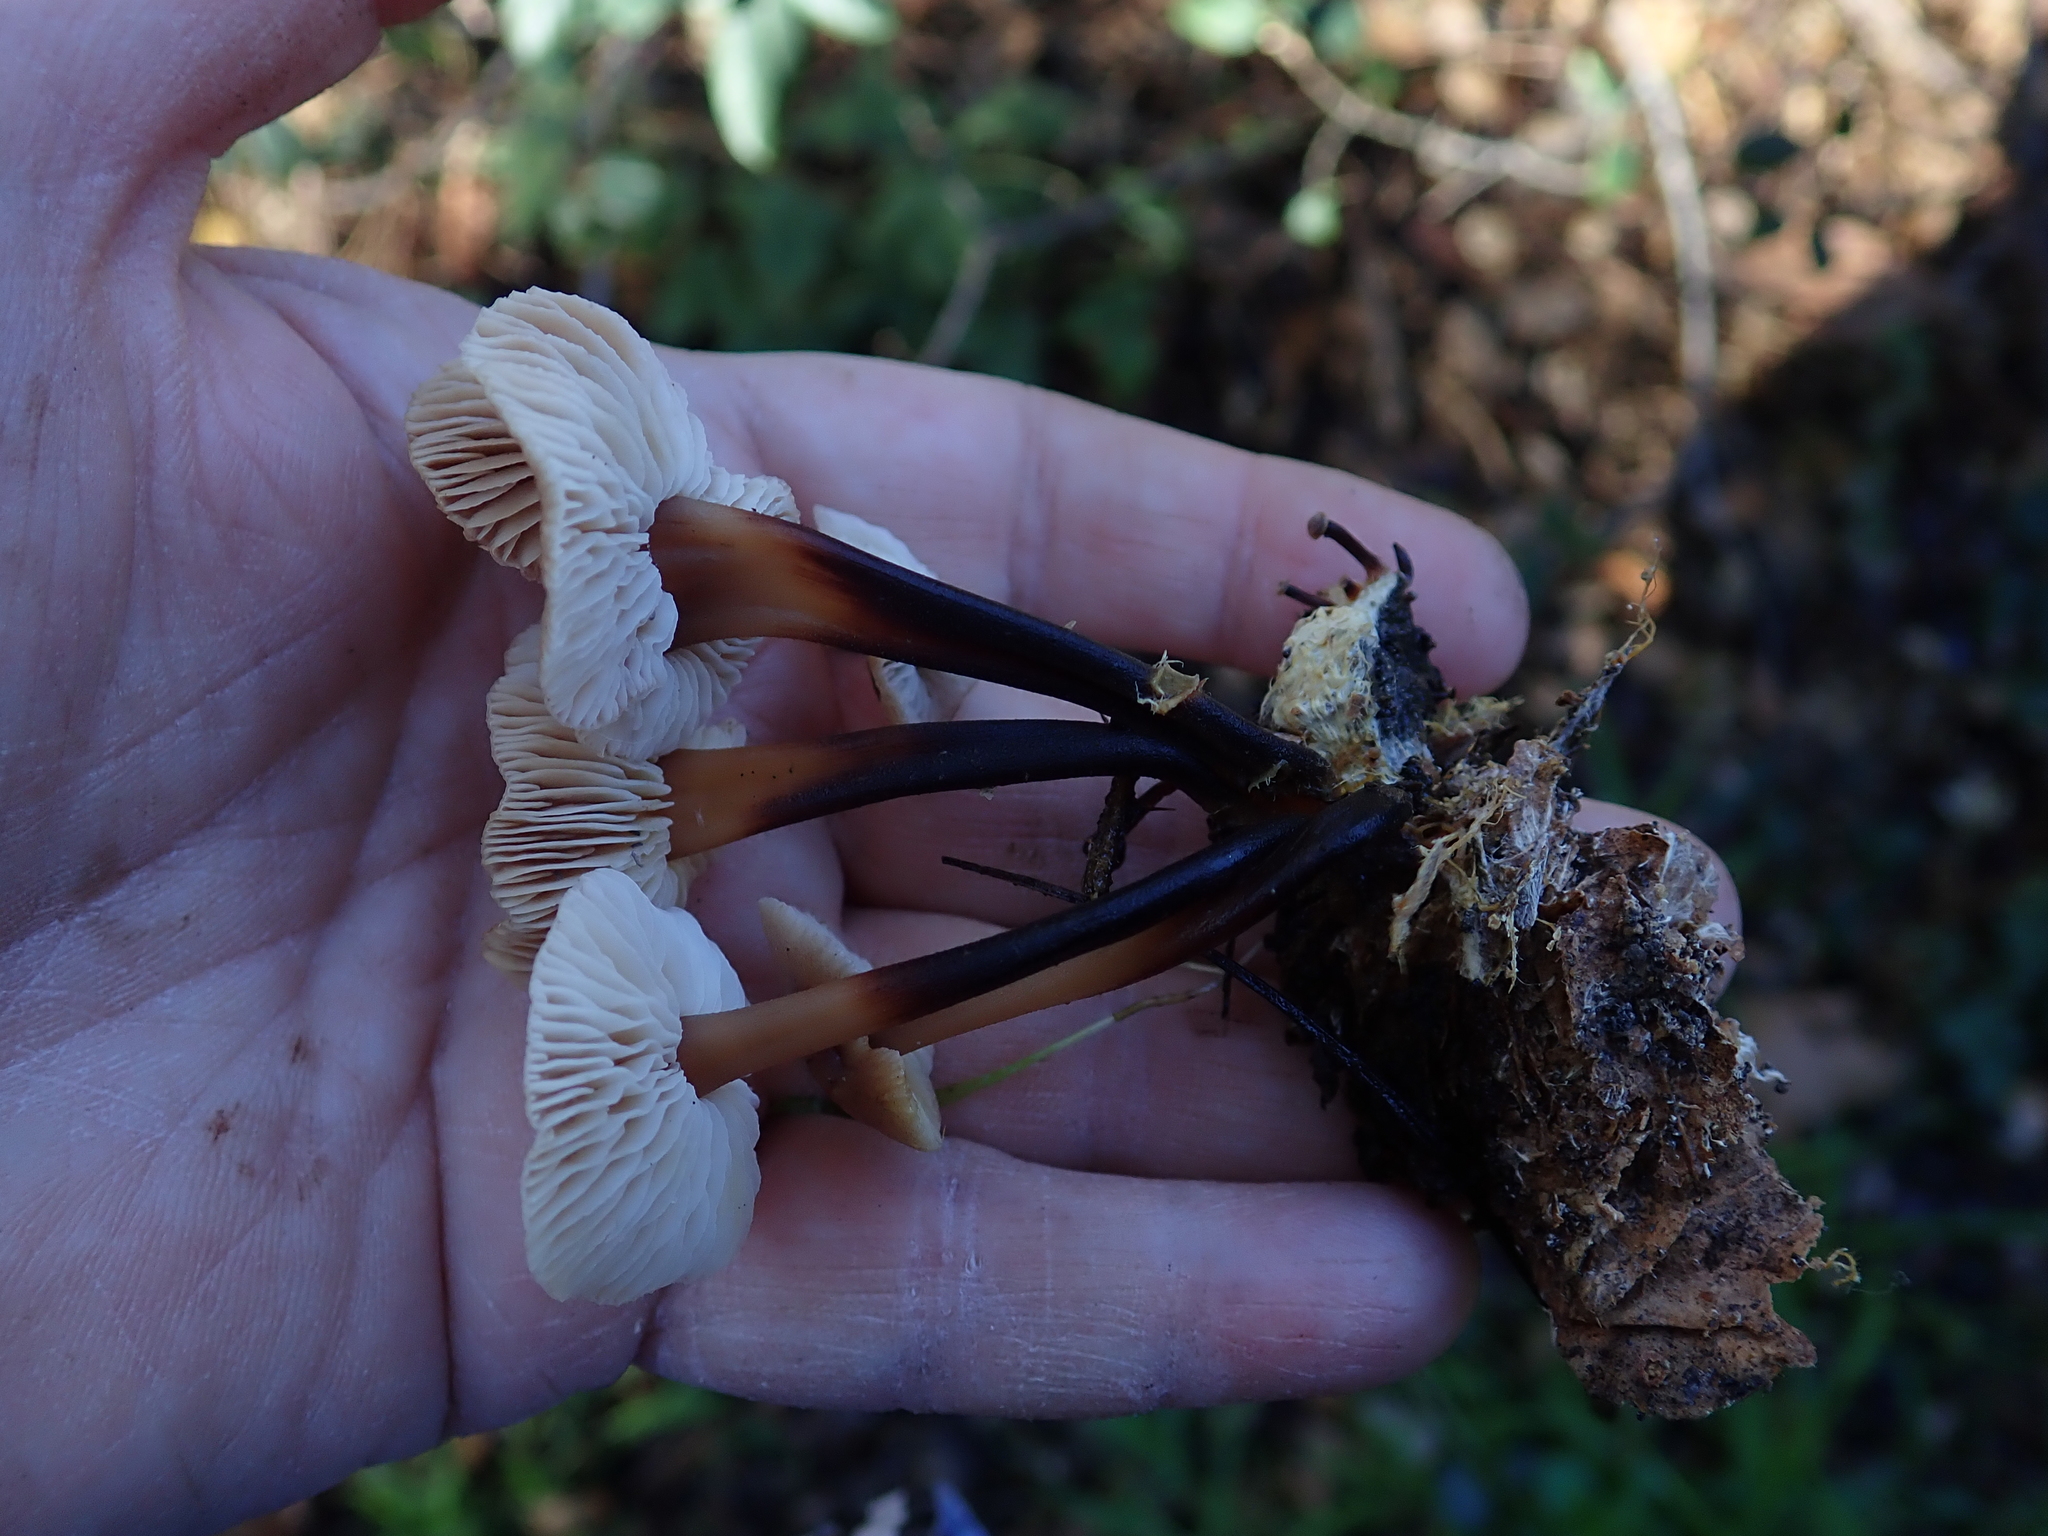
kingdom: Fungi
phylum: Basidiomycota
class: Agaricomycetes
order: Agaricales
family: Omphalotaceae
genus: Gymnopus
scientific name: Gymnopus brassicolens
